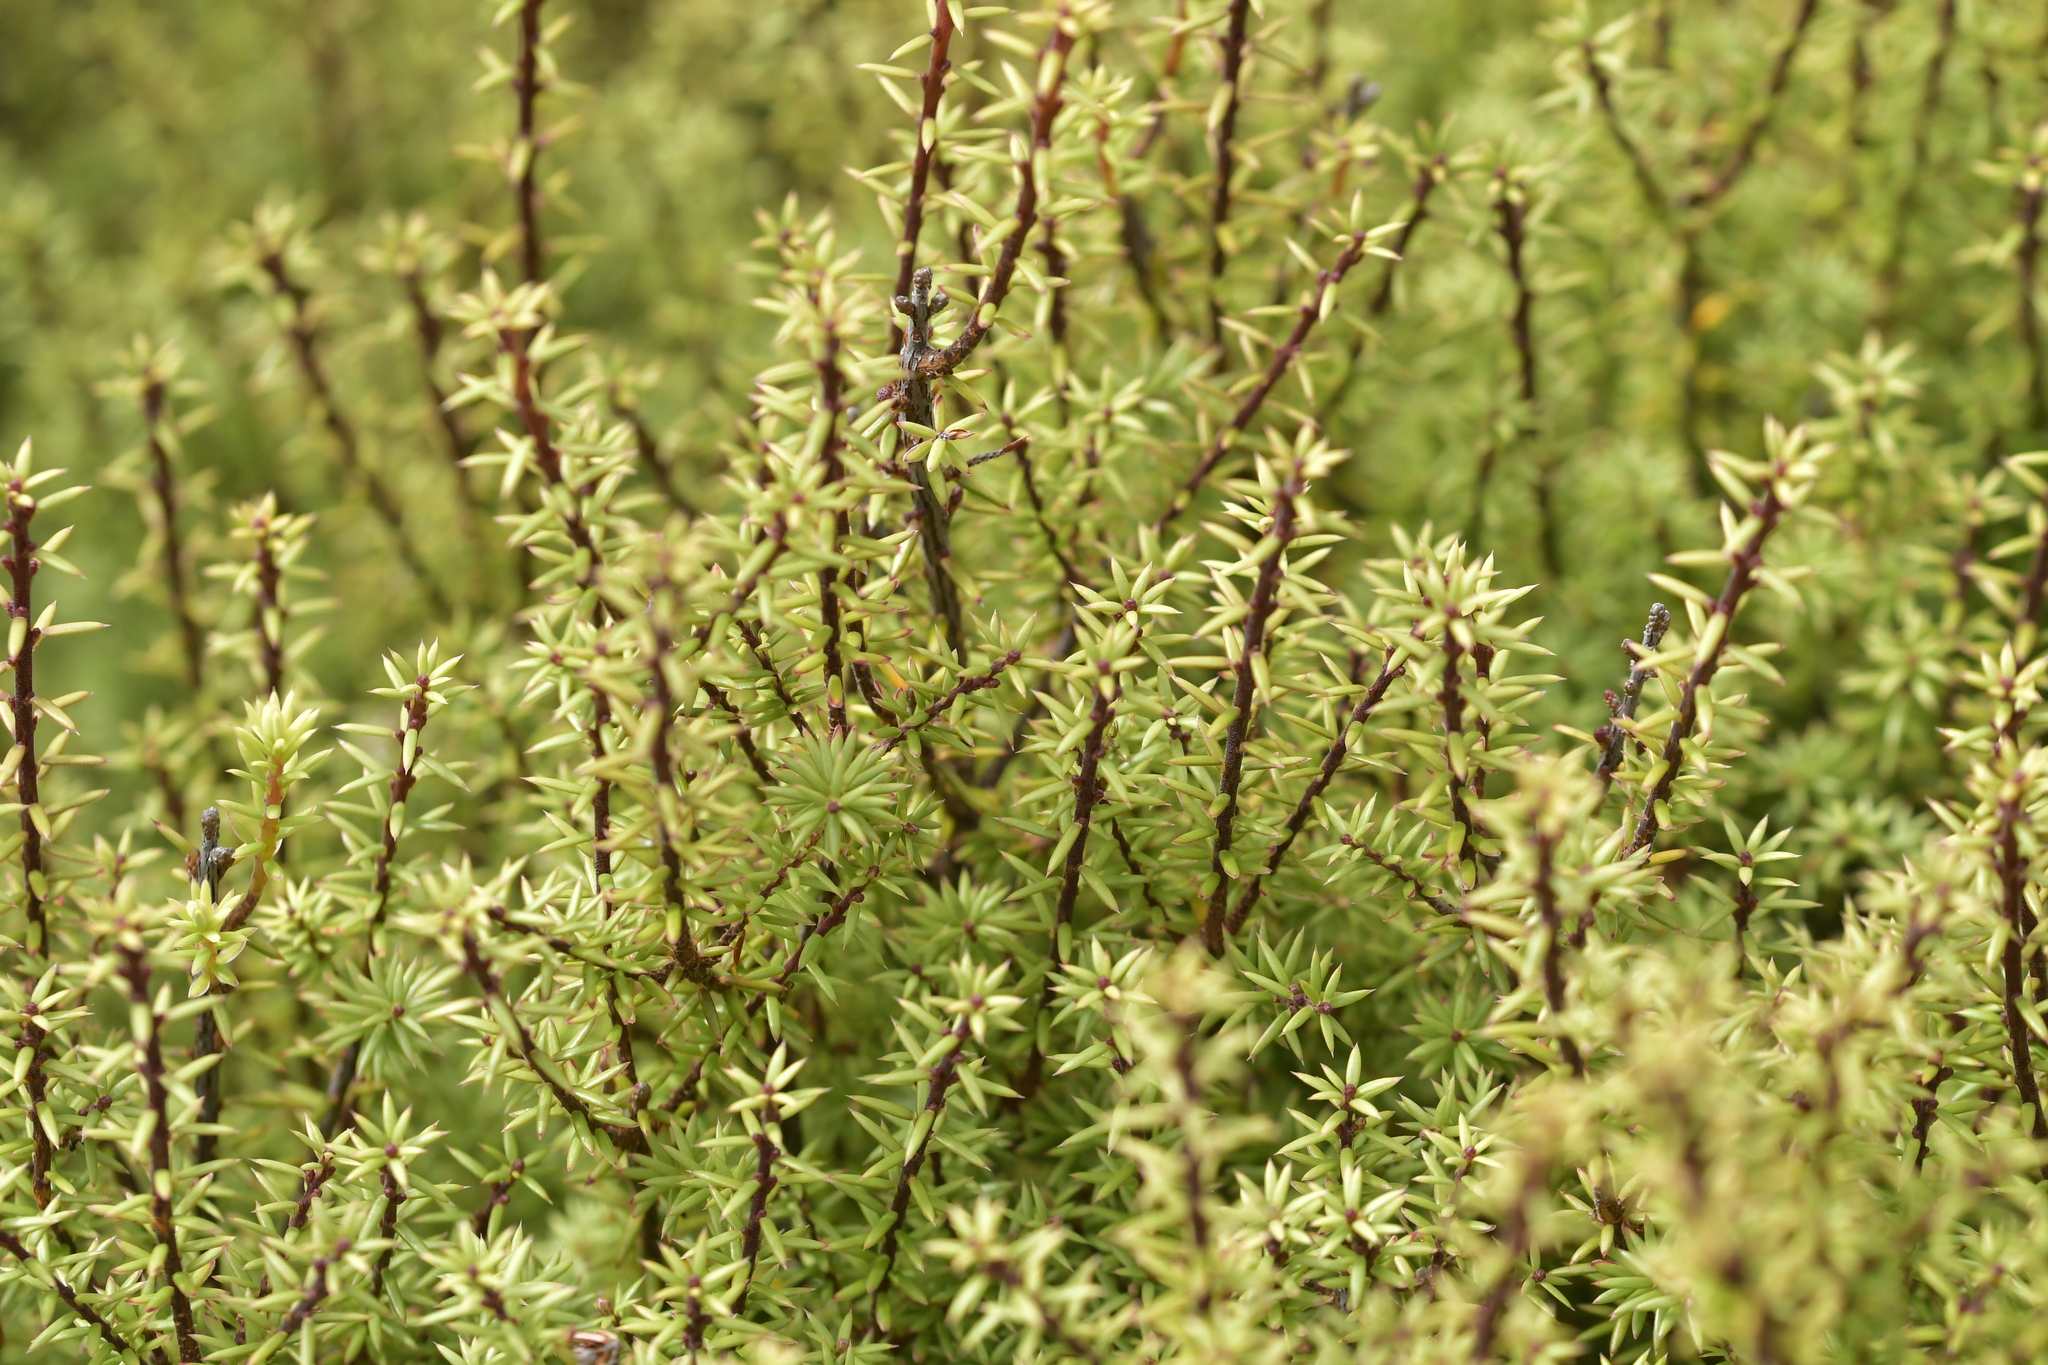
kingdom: Plantae
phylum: Tracheophyta
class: Magnoliopsida
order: Ericales
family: Ericaceae
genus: Leptecophylla
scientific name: Leptecophylla juniperina
